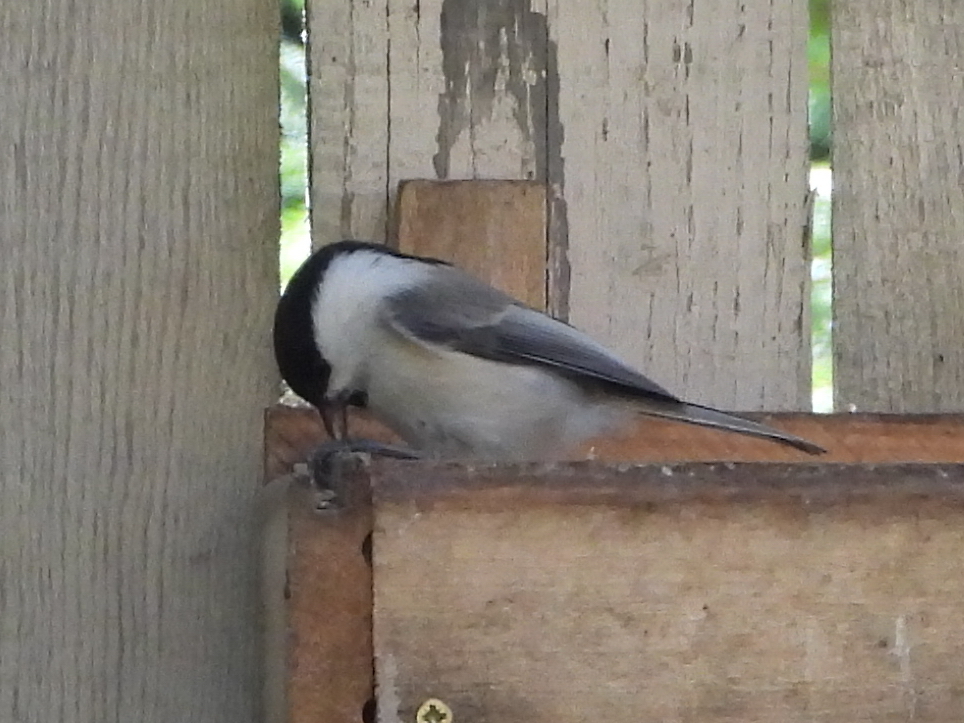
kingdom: Animalia
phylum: Chordata
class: Aves
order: Passeriformes
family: Paridae
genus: Poecile
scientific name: Poecile montanus
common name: Willow tit
